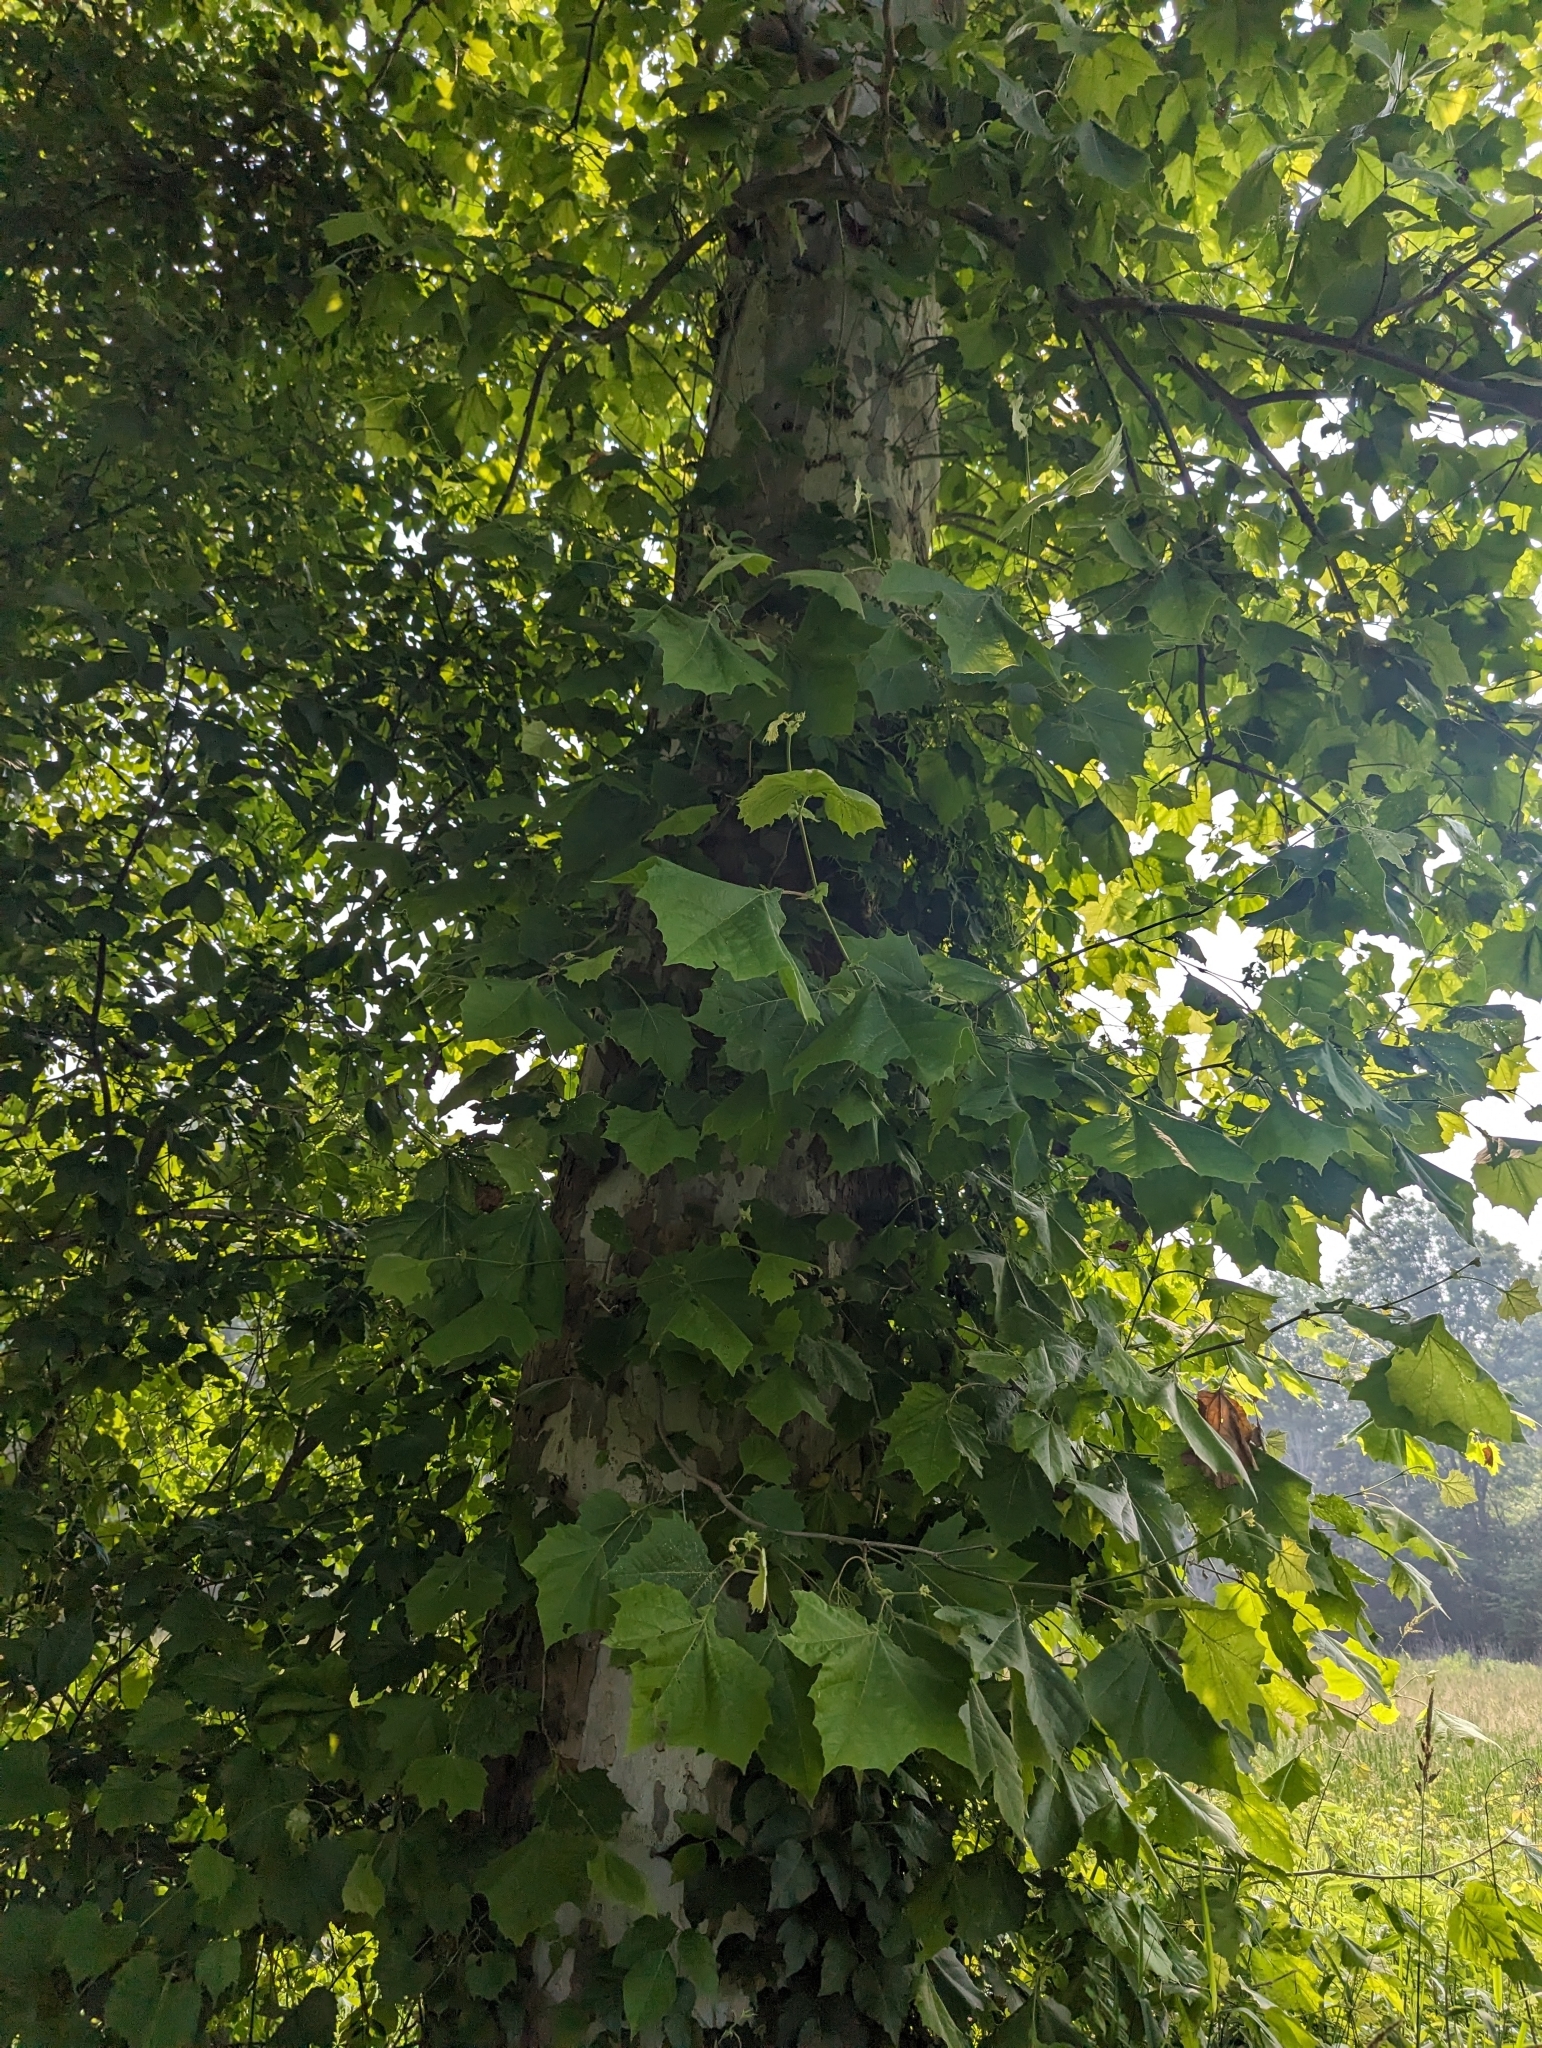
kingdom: Plantae
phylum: Tracheophyta
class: Magnoliopsida
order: Proteales
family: Platanaceae
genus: Platanus
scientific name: Platanus occidentalis
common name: American sycamore
